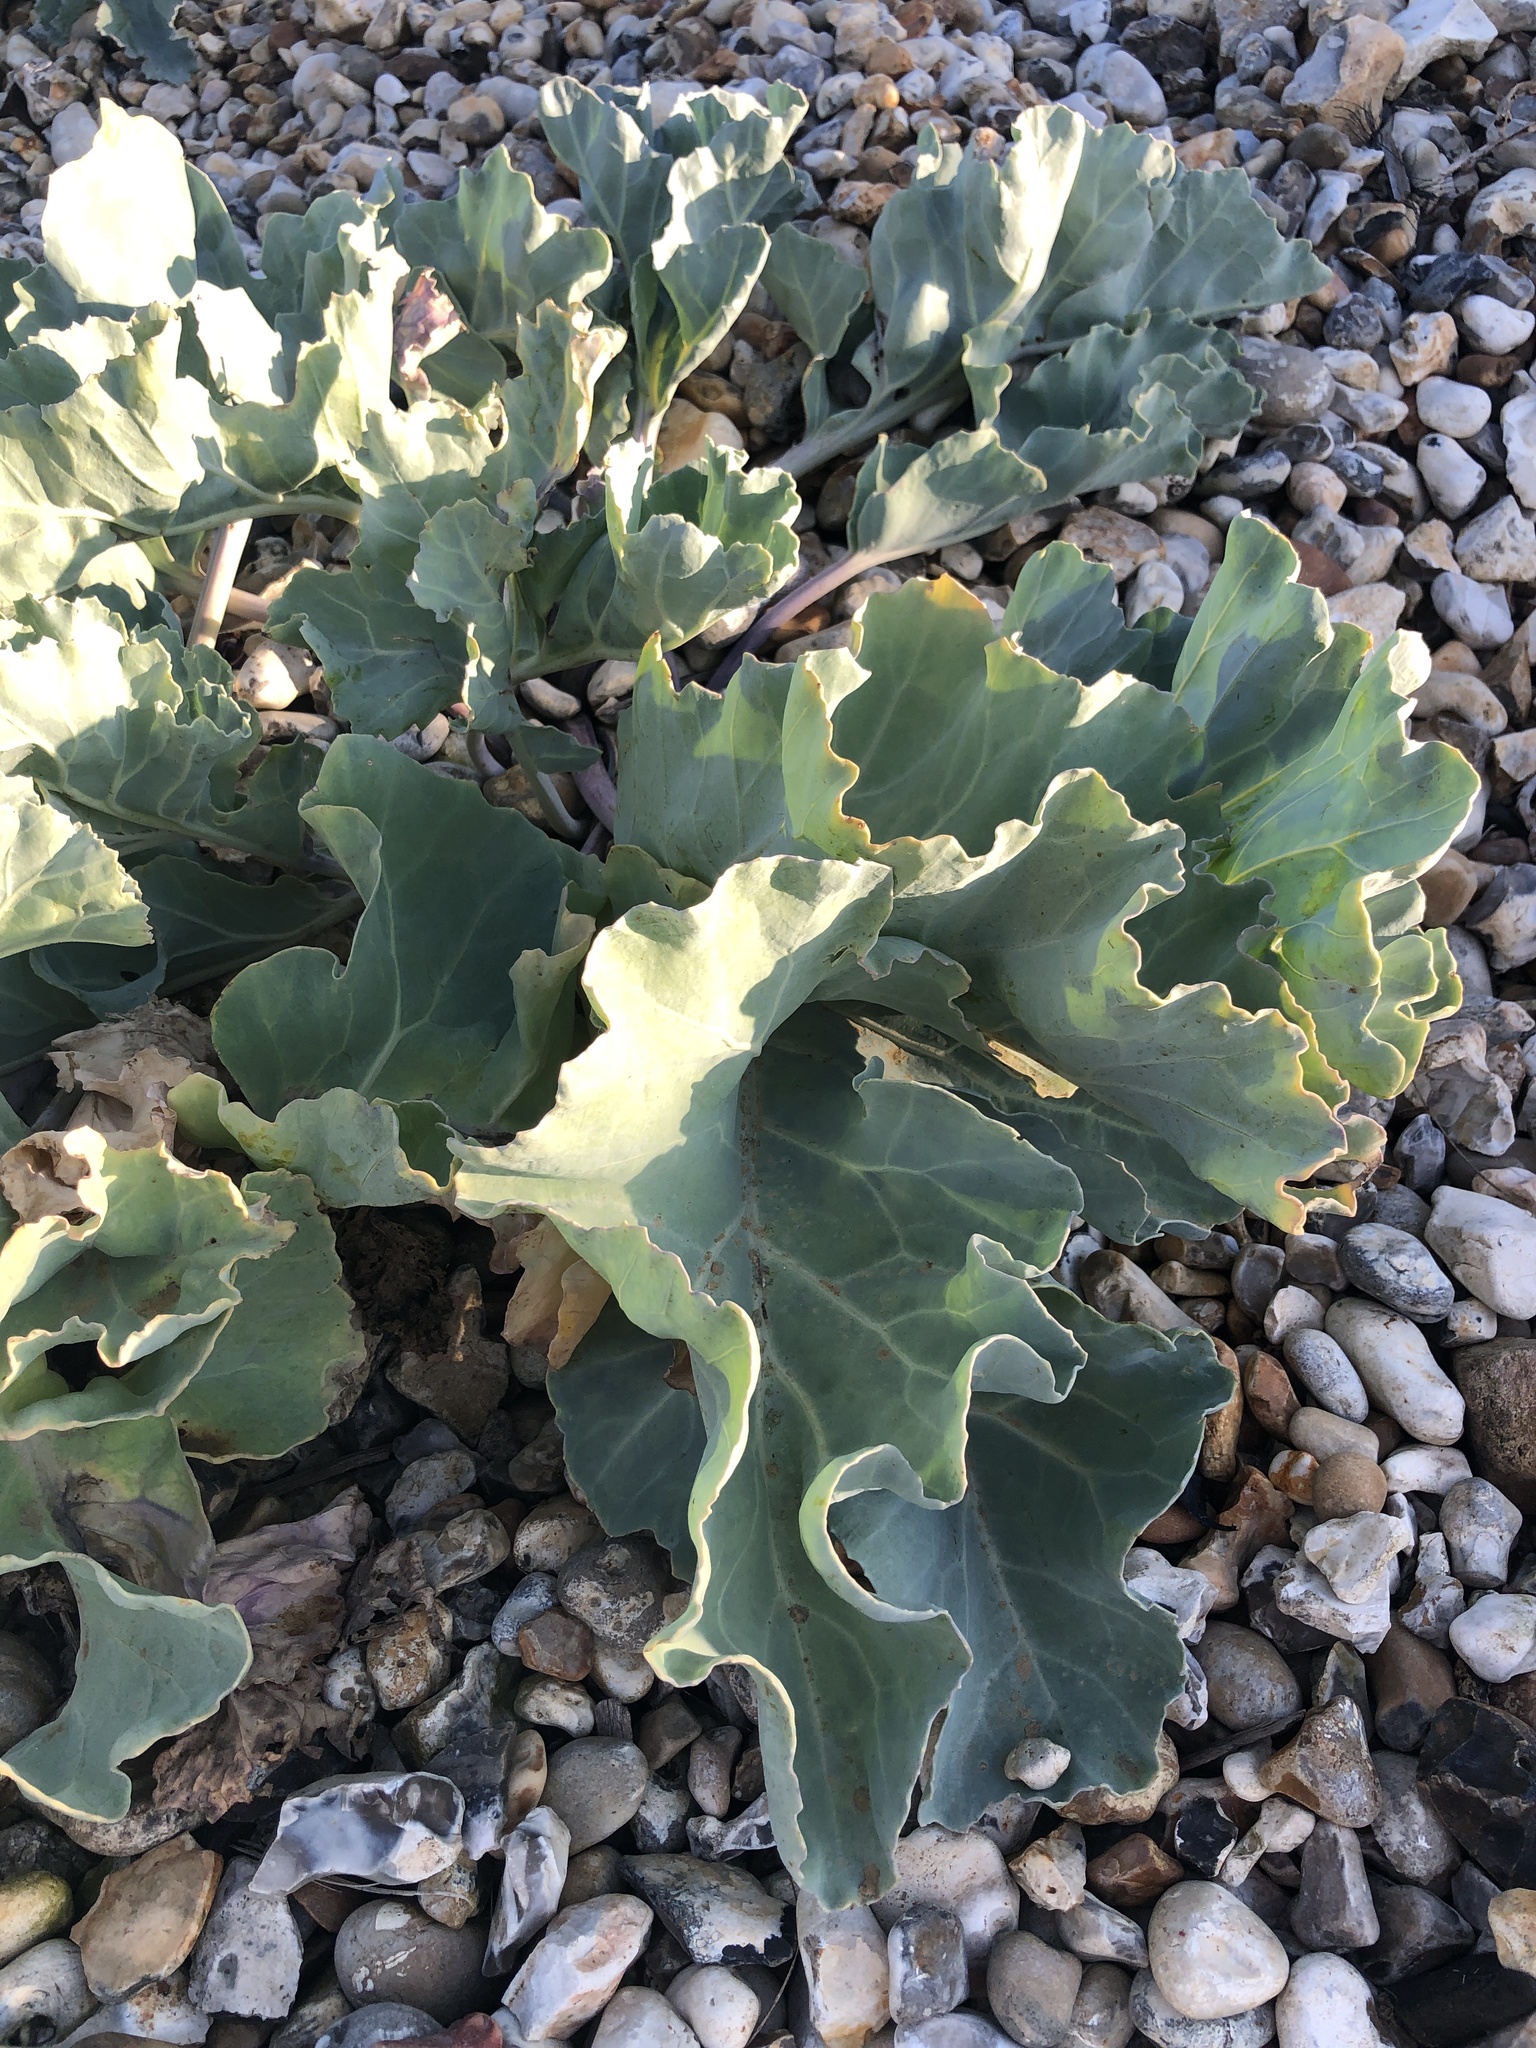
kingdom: Plantae
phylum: Tracheophyta
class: Magnoliopsida
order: Brassicales
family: Brassicaceae
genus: Crambe
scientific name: Crambe maritima
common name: Sea-kale
